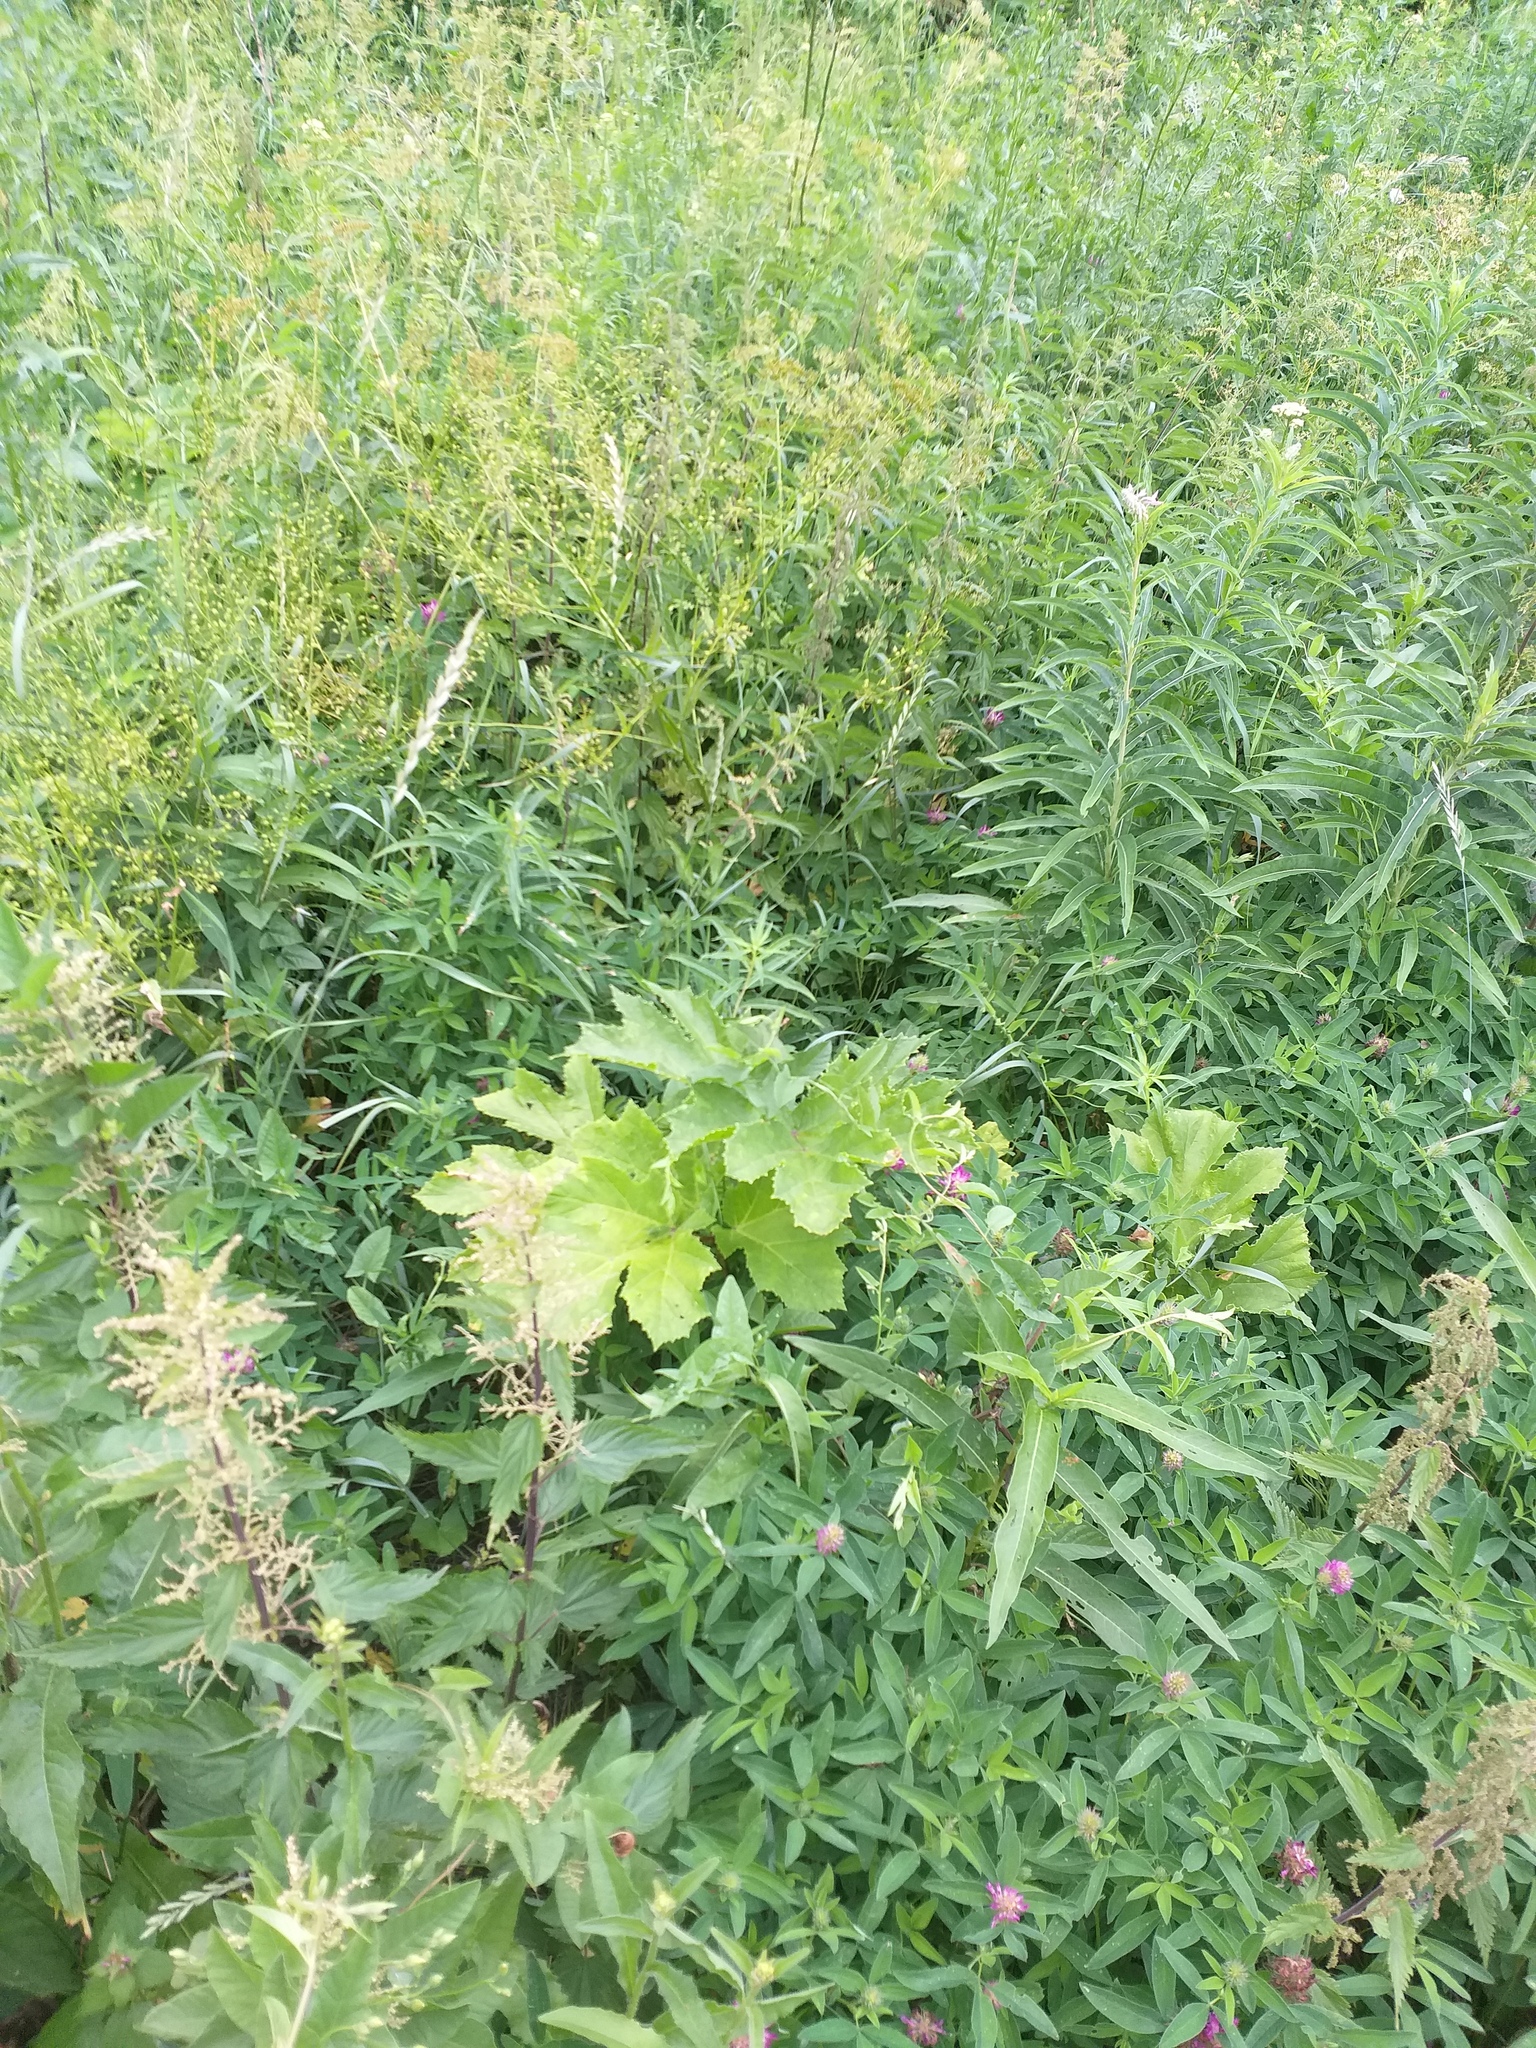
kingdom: Plantae
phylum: Tracheophyta
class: Magnoliopsida
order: Apiales
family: Apiaceae
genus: Heracleum
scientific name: Heracleum sosnowskyi
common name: Sosnowsky's hogweed
